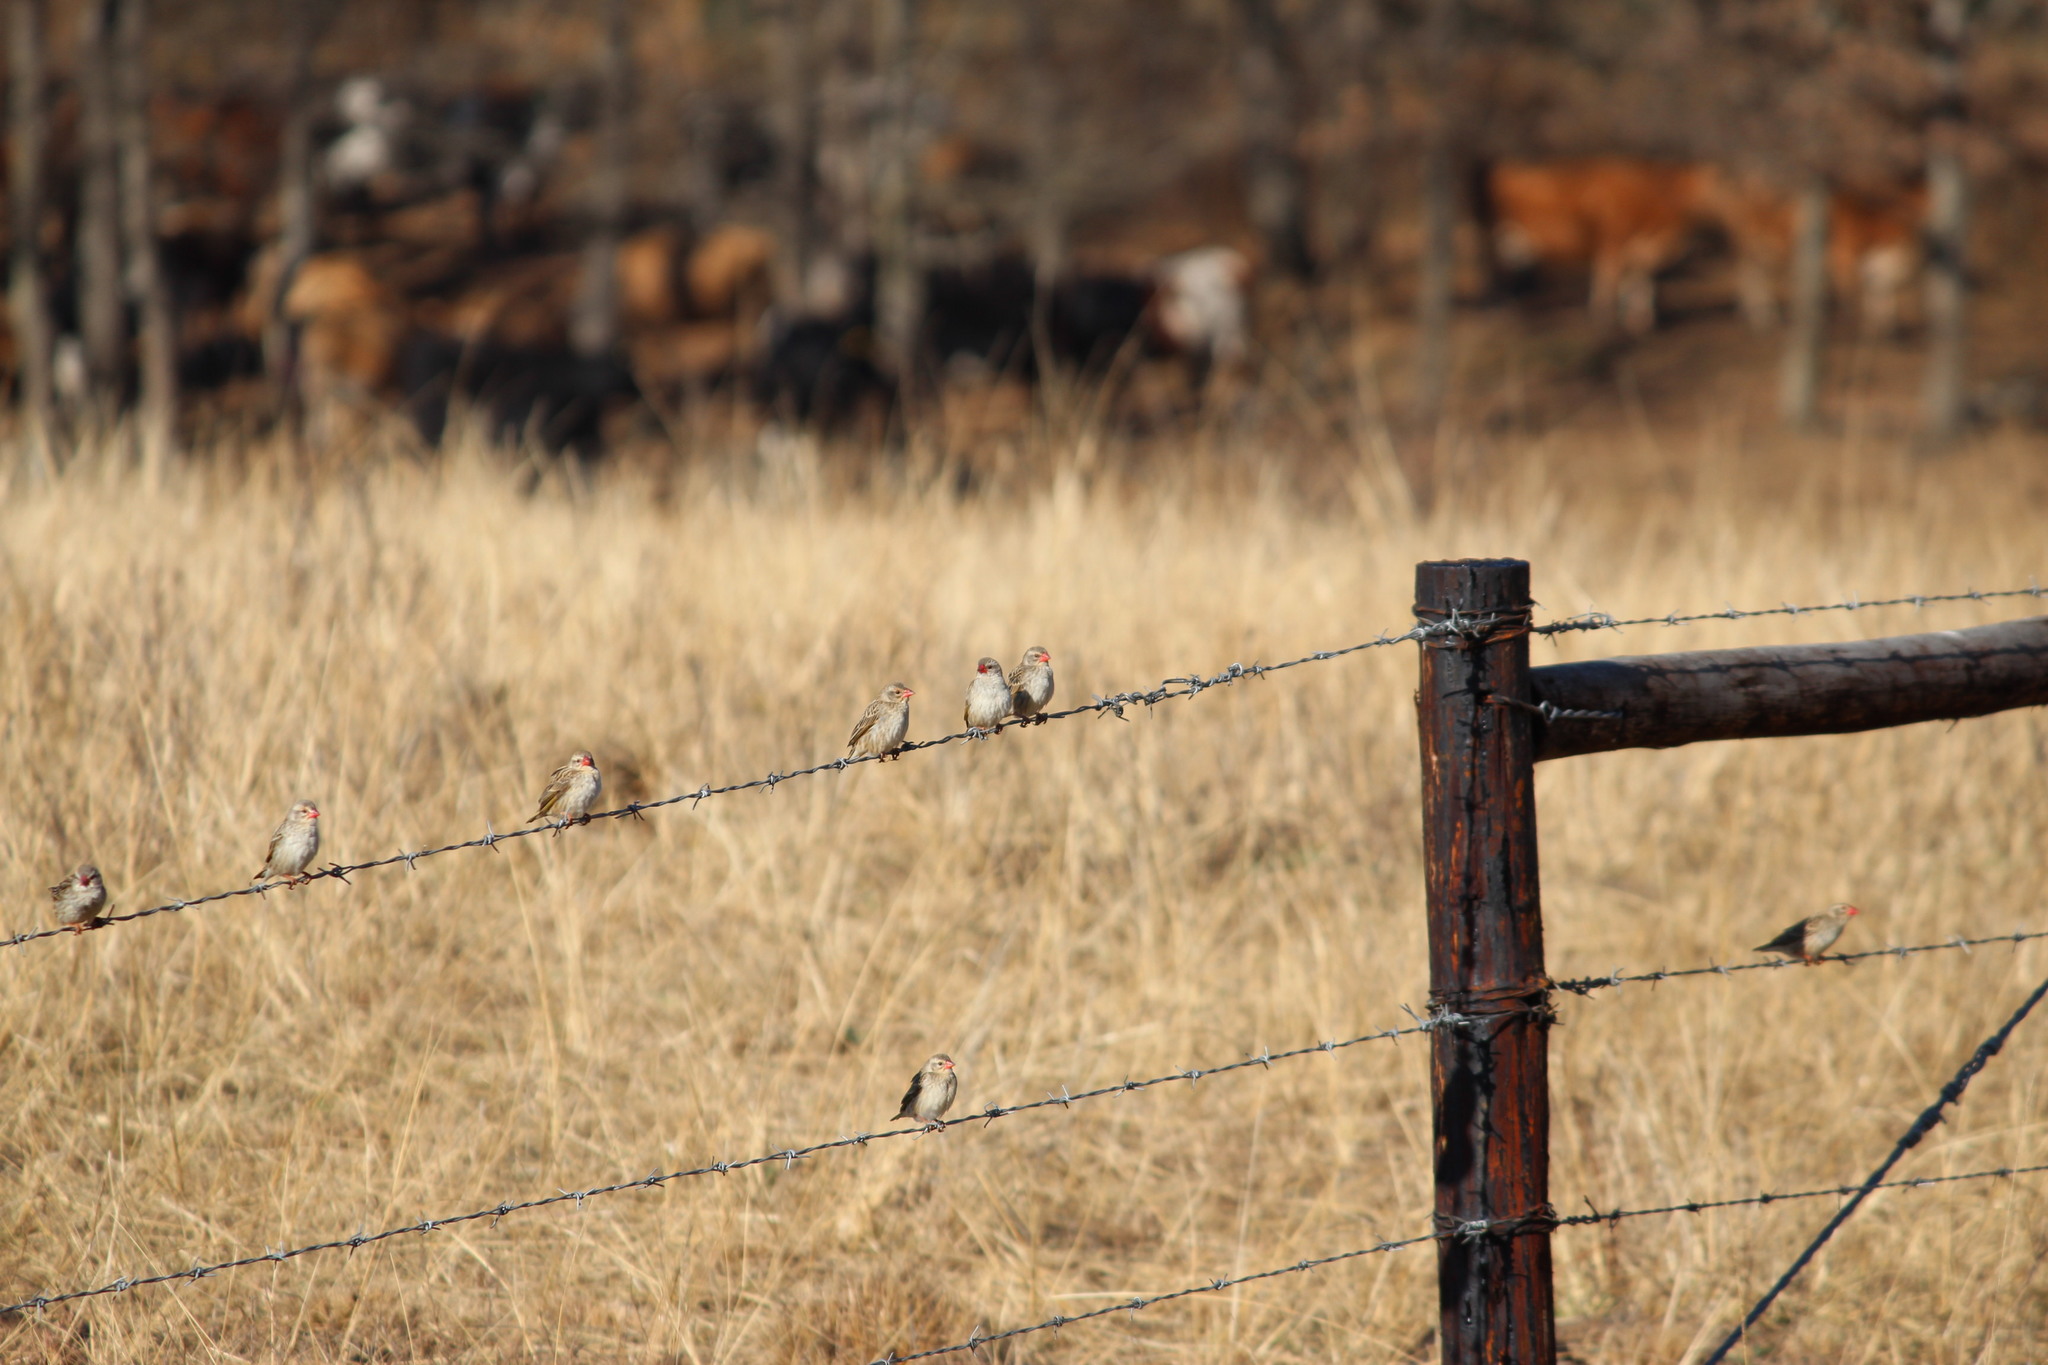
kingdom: Animalia
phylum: Chordata
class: Aves
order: Passeriformes
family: Ploceidae
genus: Quelea
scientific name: Quelea quelea
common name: Red-billed quelea
